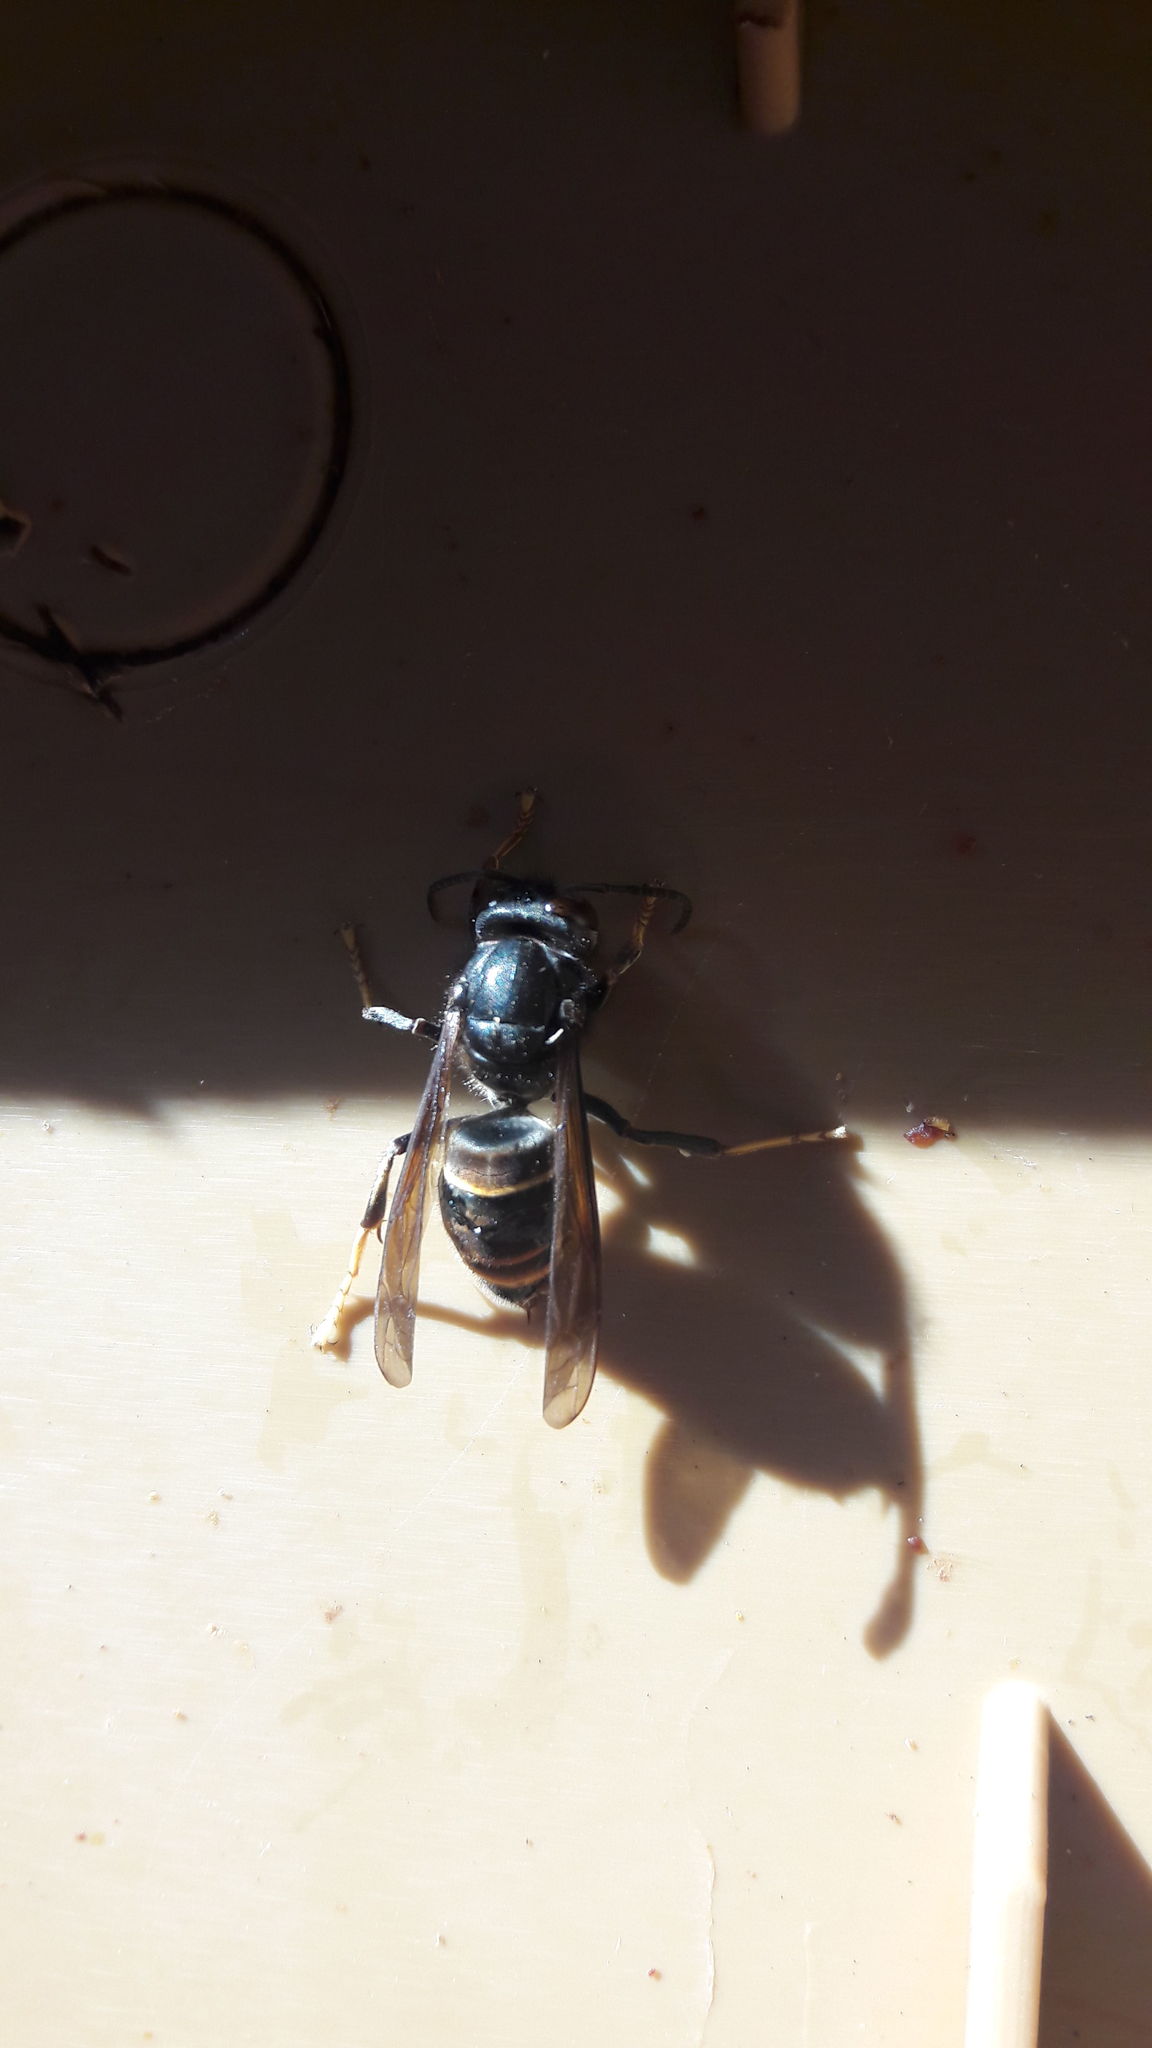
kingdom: Animalia
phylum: Arthropoda
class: Insecta
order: Hymenoptera
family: Vespidae
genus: Vespa
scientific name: Vespa velutina
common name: Asian hornet
